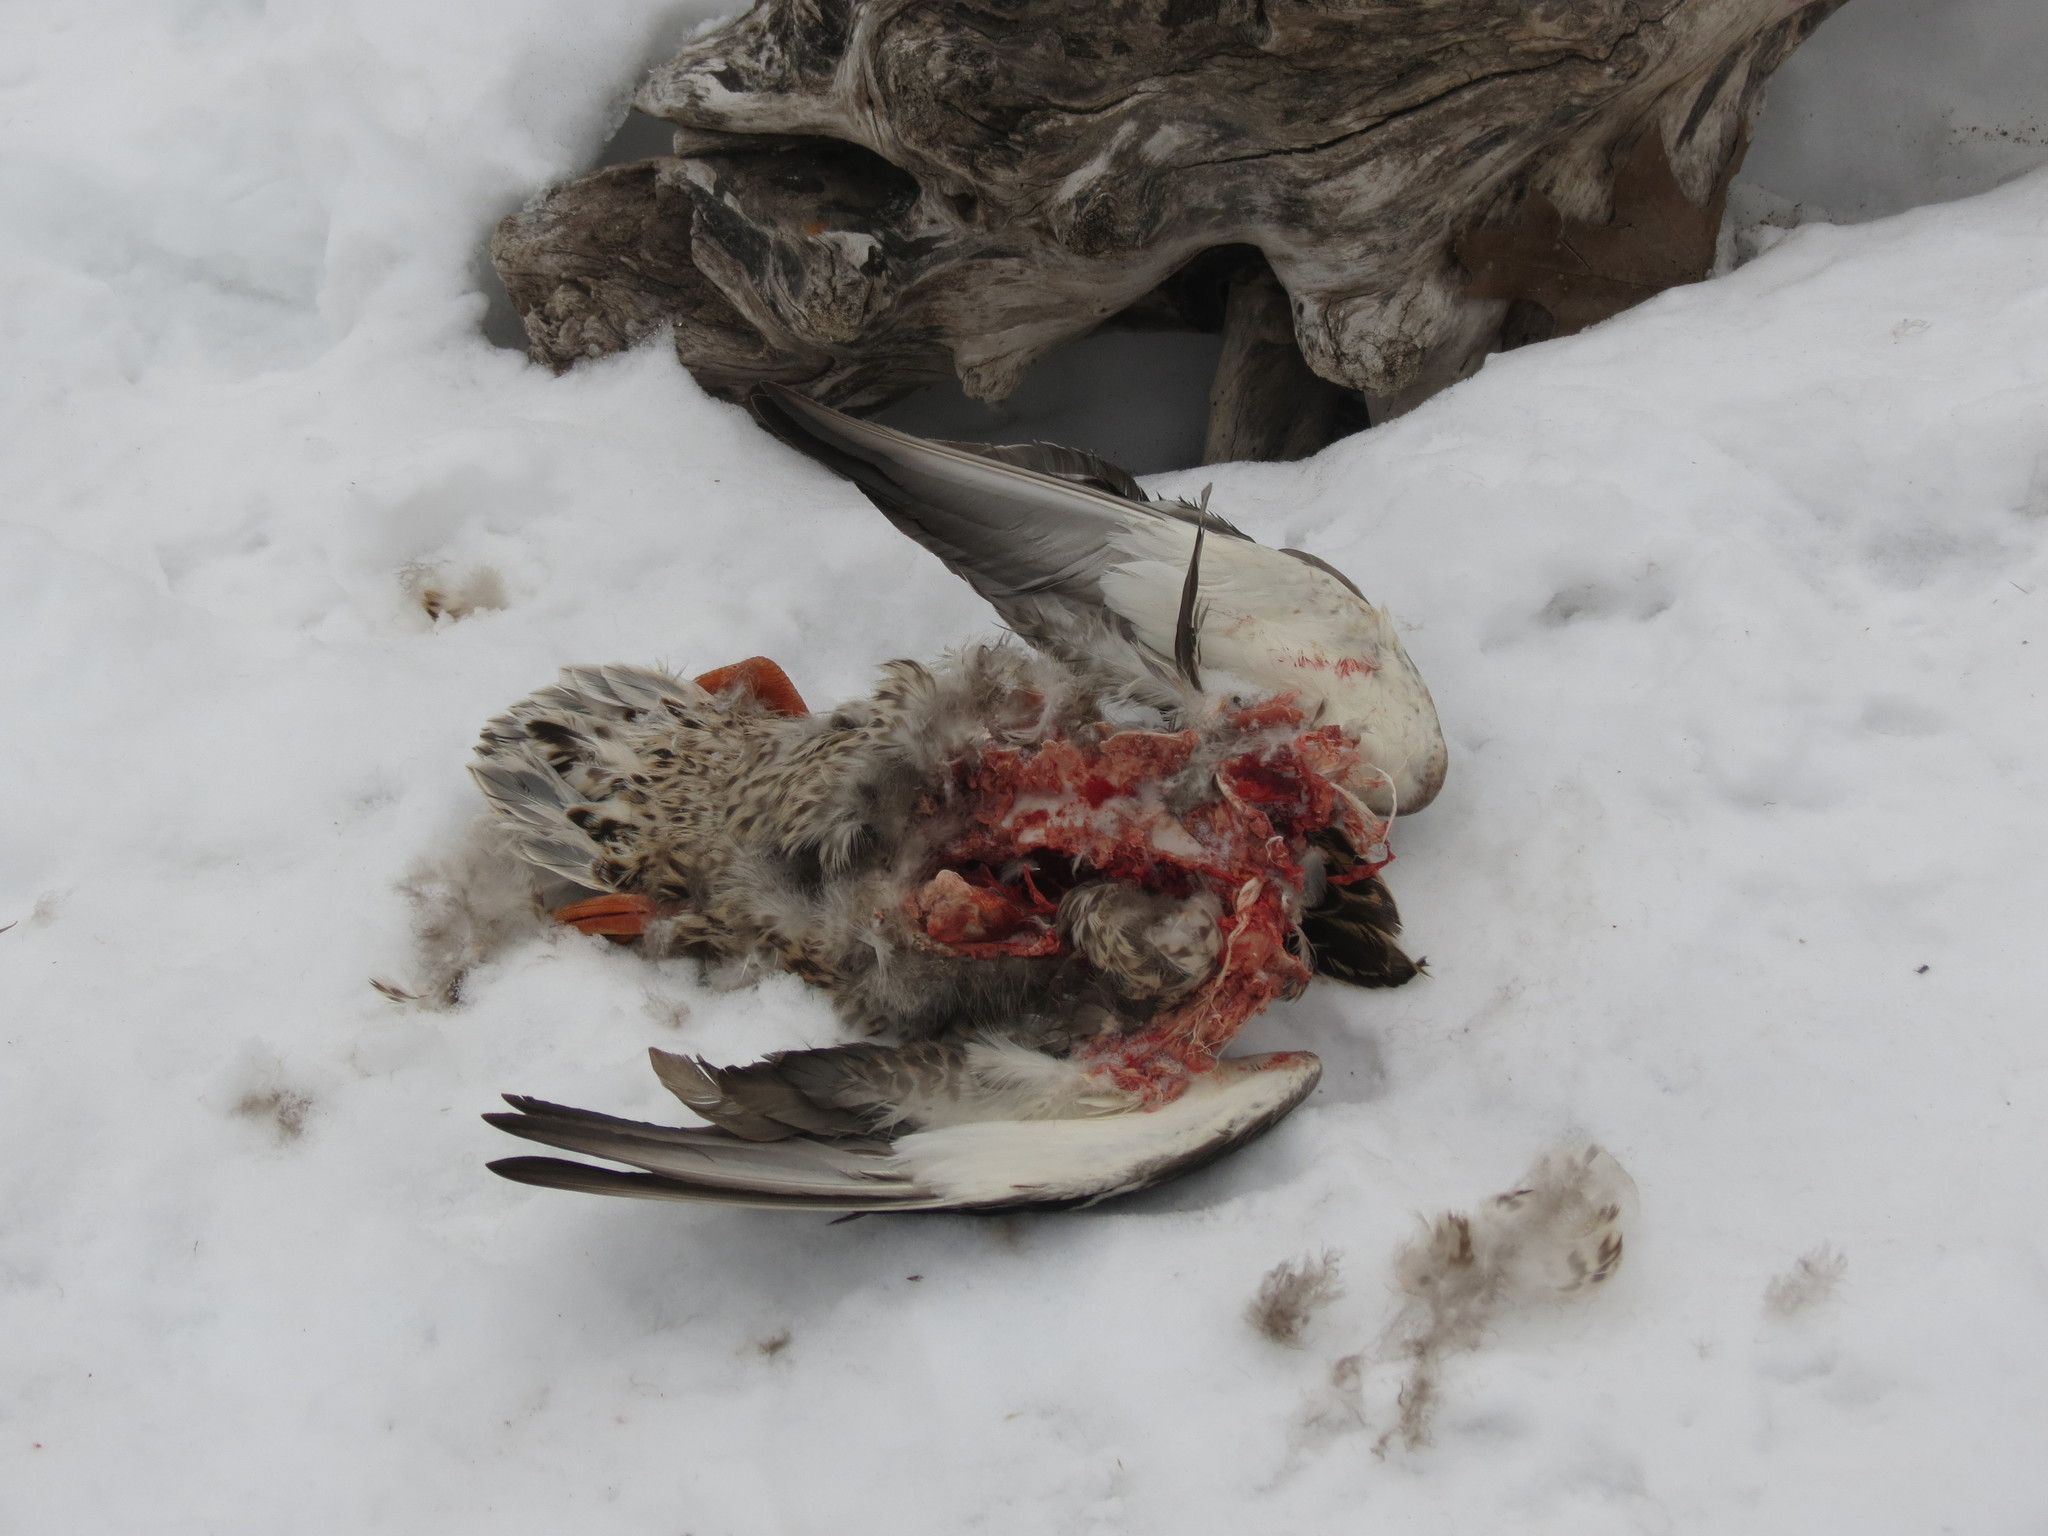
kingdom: Animalia
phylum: Chordata
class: Aves
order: Anseriformes
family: Anatidae
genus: Anas
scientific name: Anas platyrhynchos
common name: Mallard
